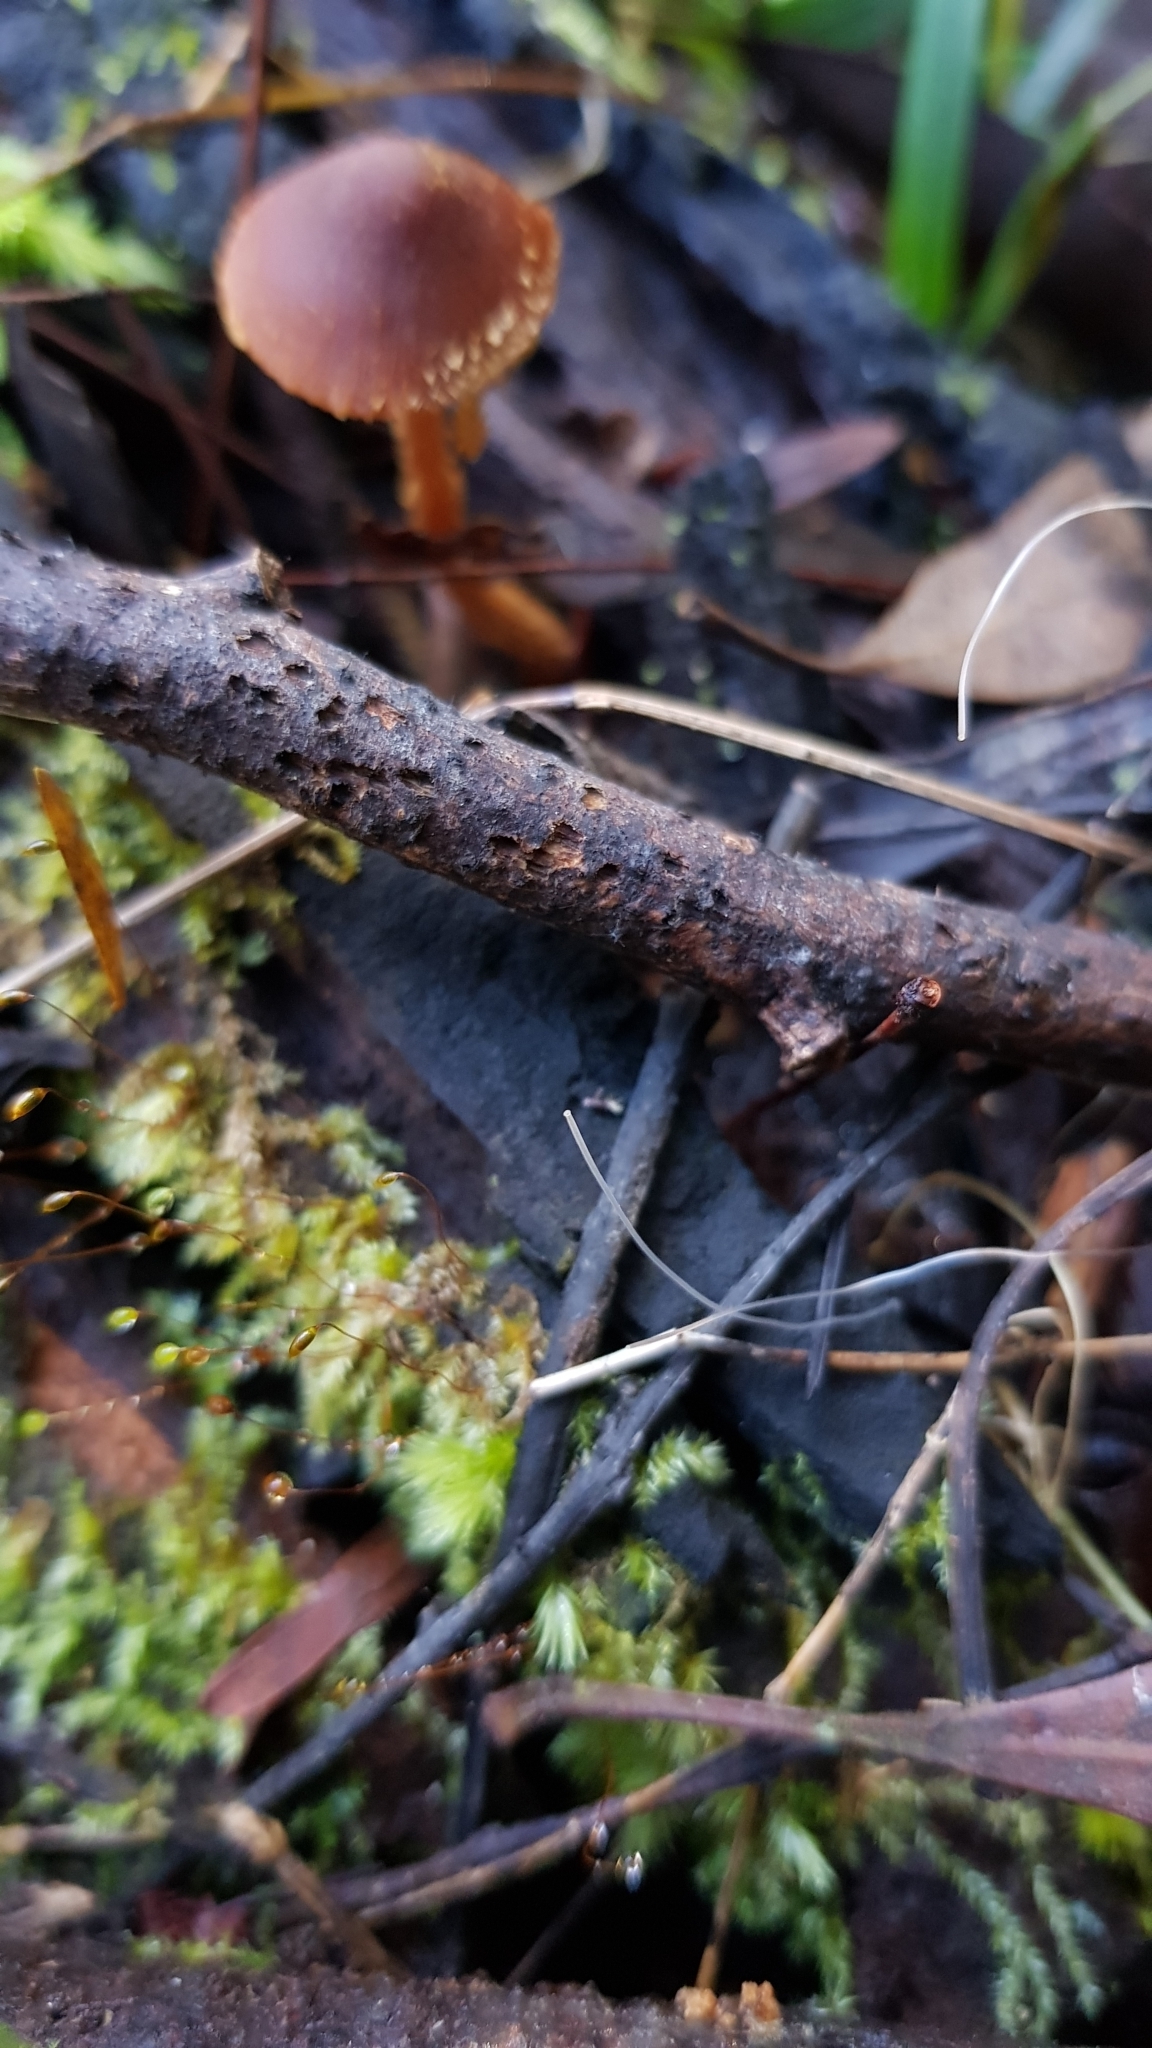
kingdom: Fungi
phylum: Basidiomycota
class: Agaricomycetes
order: Agaricales
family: Mycenaceae
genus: Mycena
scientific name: Mycena cystidiosa
